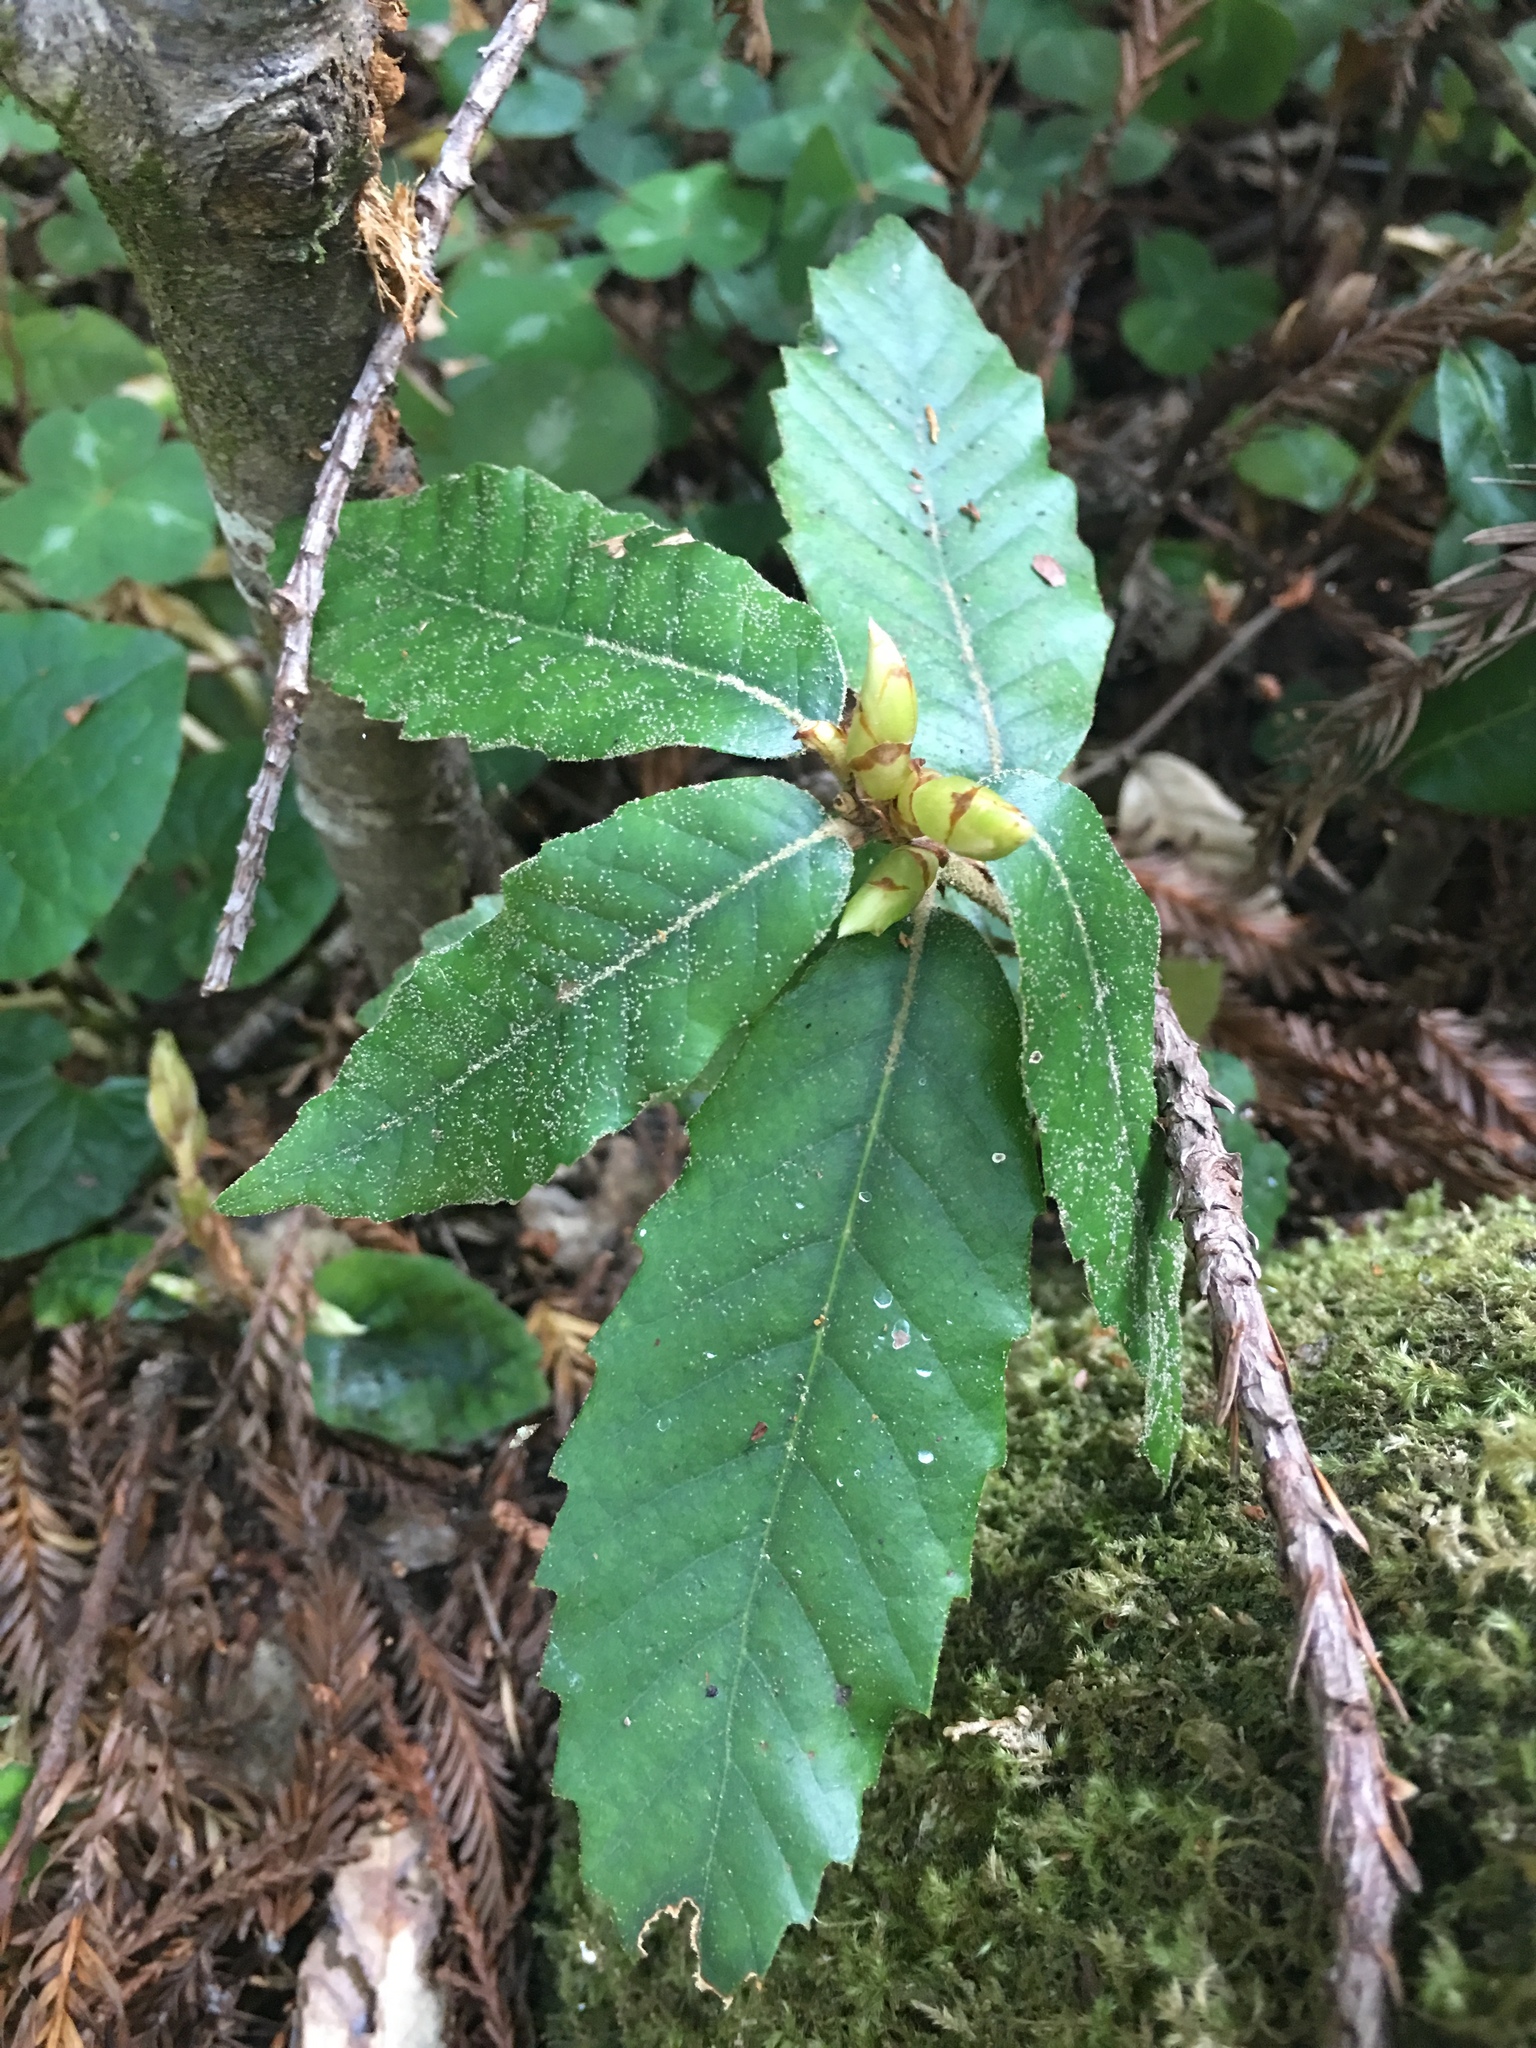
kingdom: Plantae
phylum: Tracheophyta
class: Magnoliopsida
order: Fagales
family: Fagaceae
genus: Notholithocarpus
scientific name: Notholithocarpus densiflorus
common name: Tan bark oak
